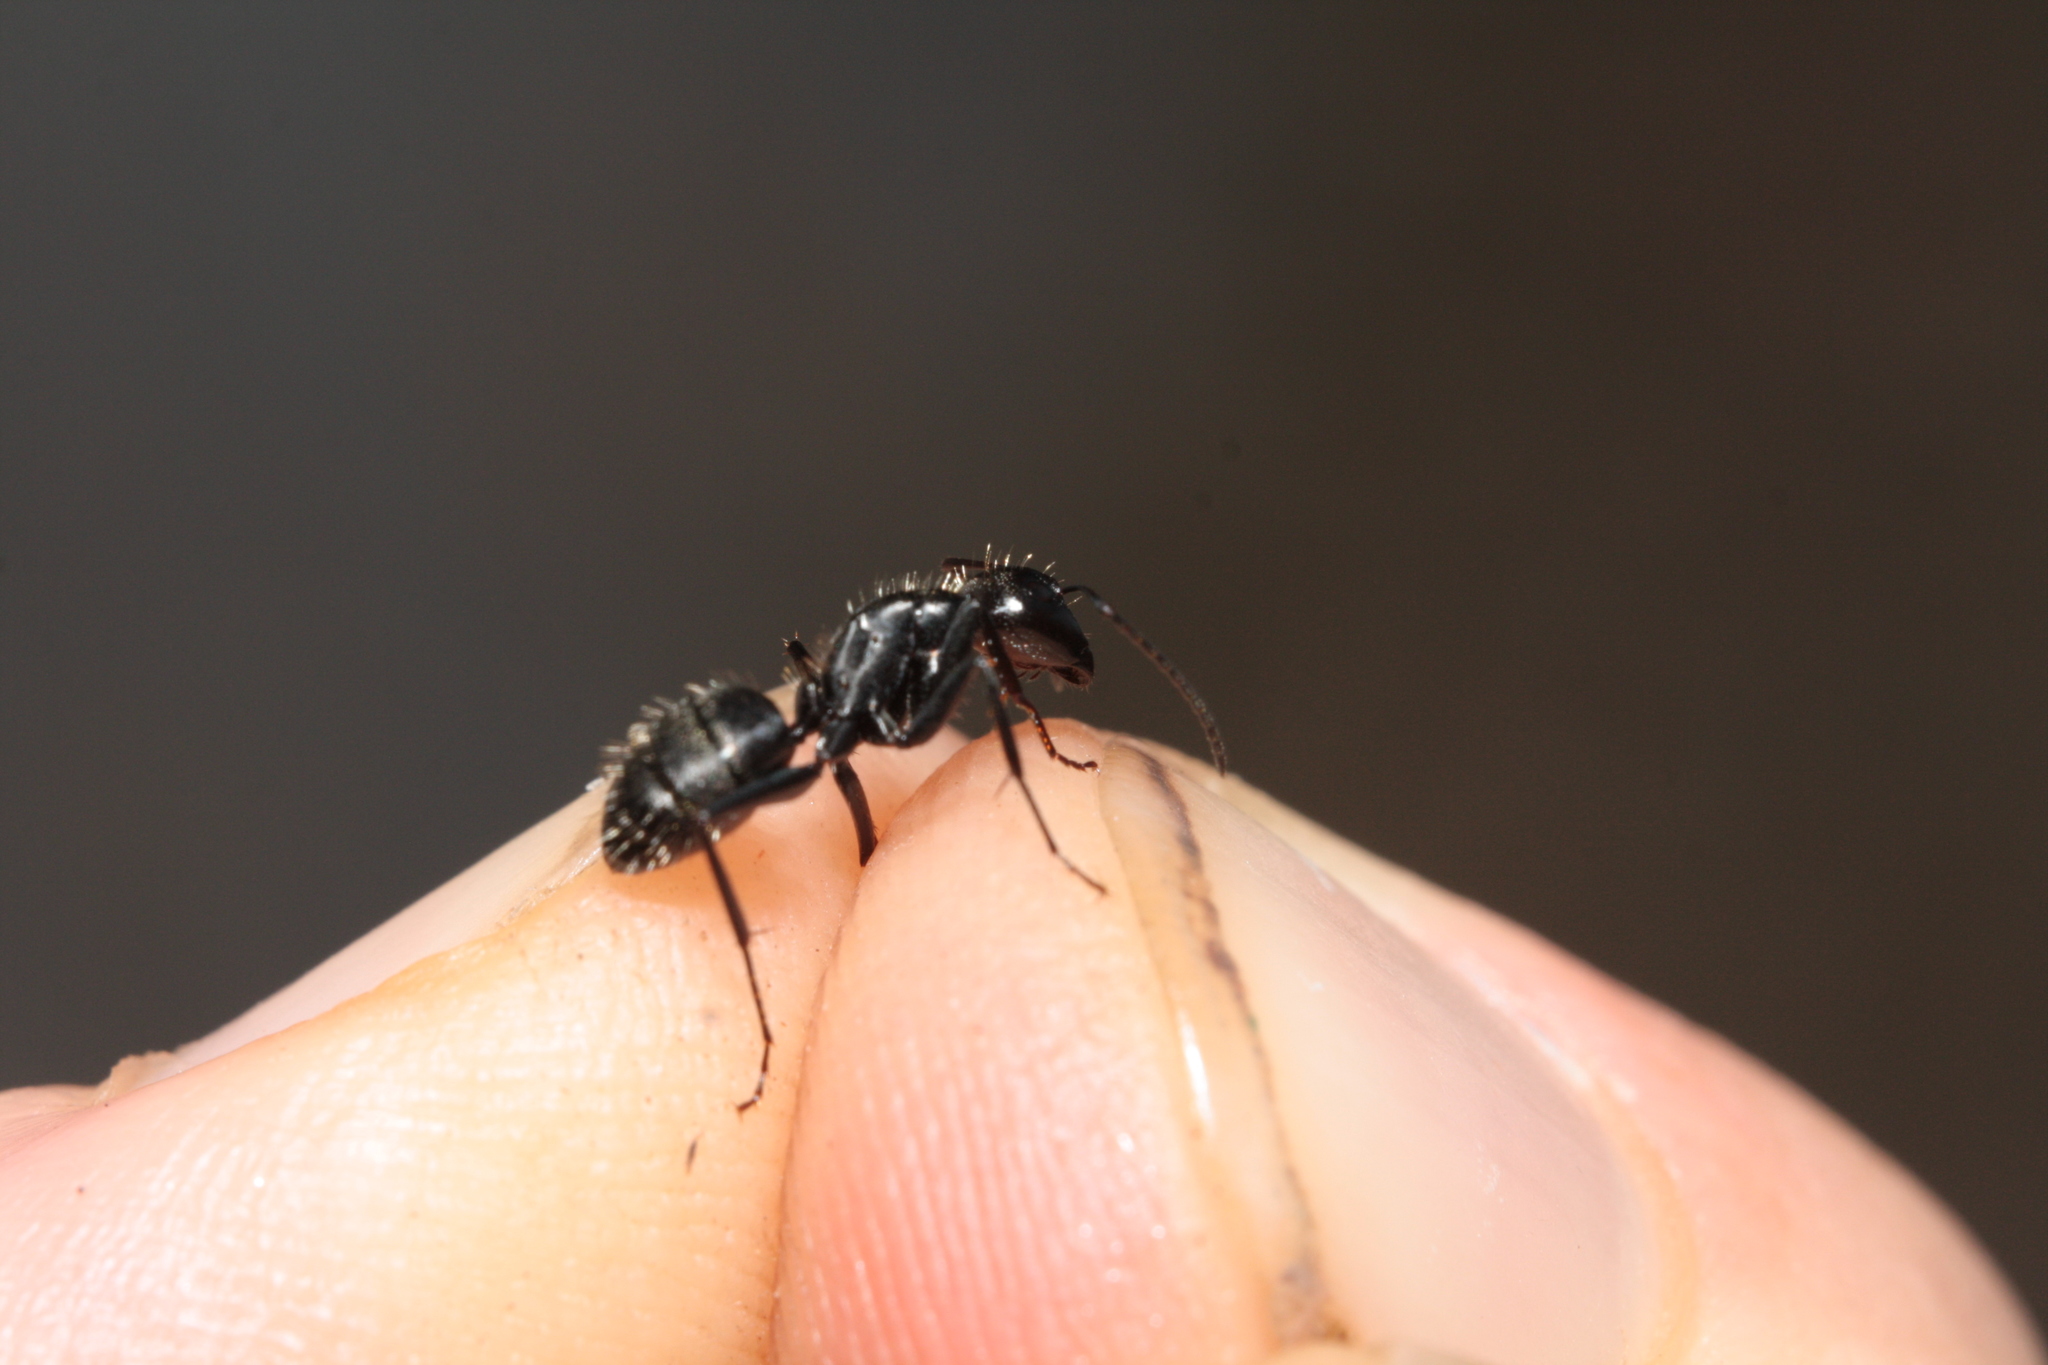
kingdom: Animalia
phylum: Arthropoda
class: Insecta
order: Hymenoptera
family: Formicidae
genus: Camponotus
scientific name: Camponotus vagus
